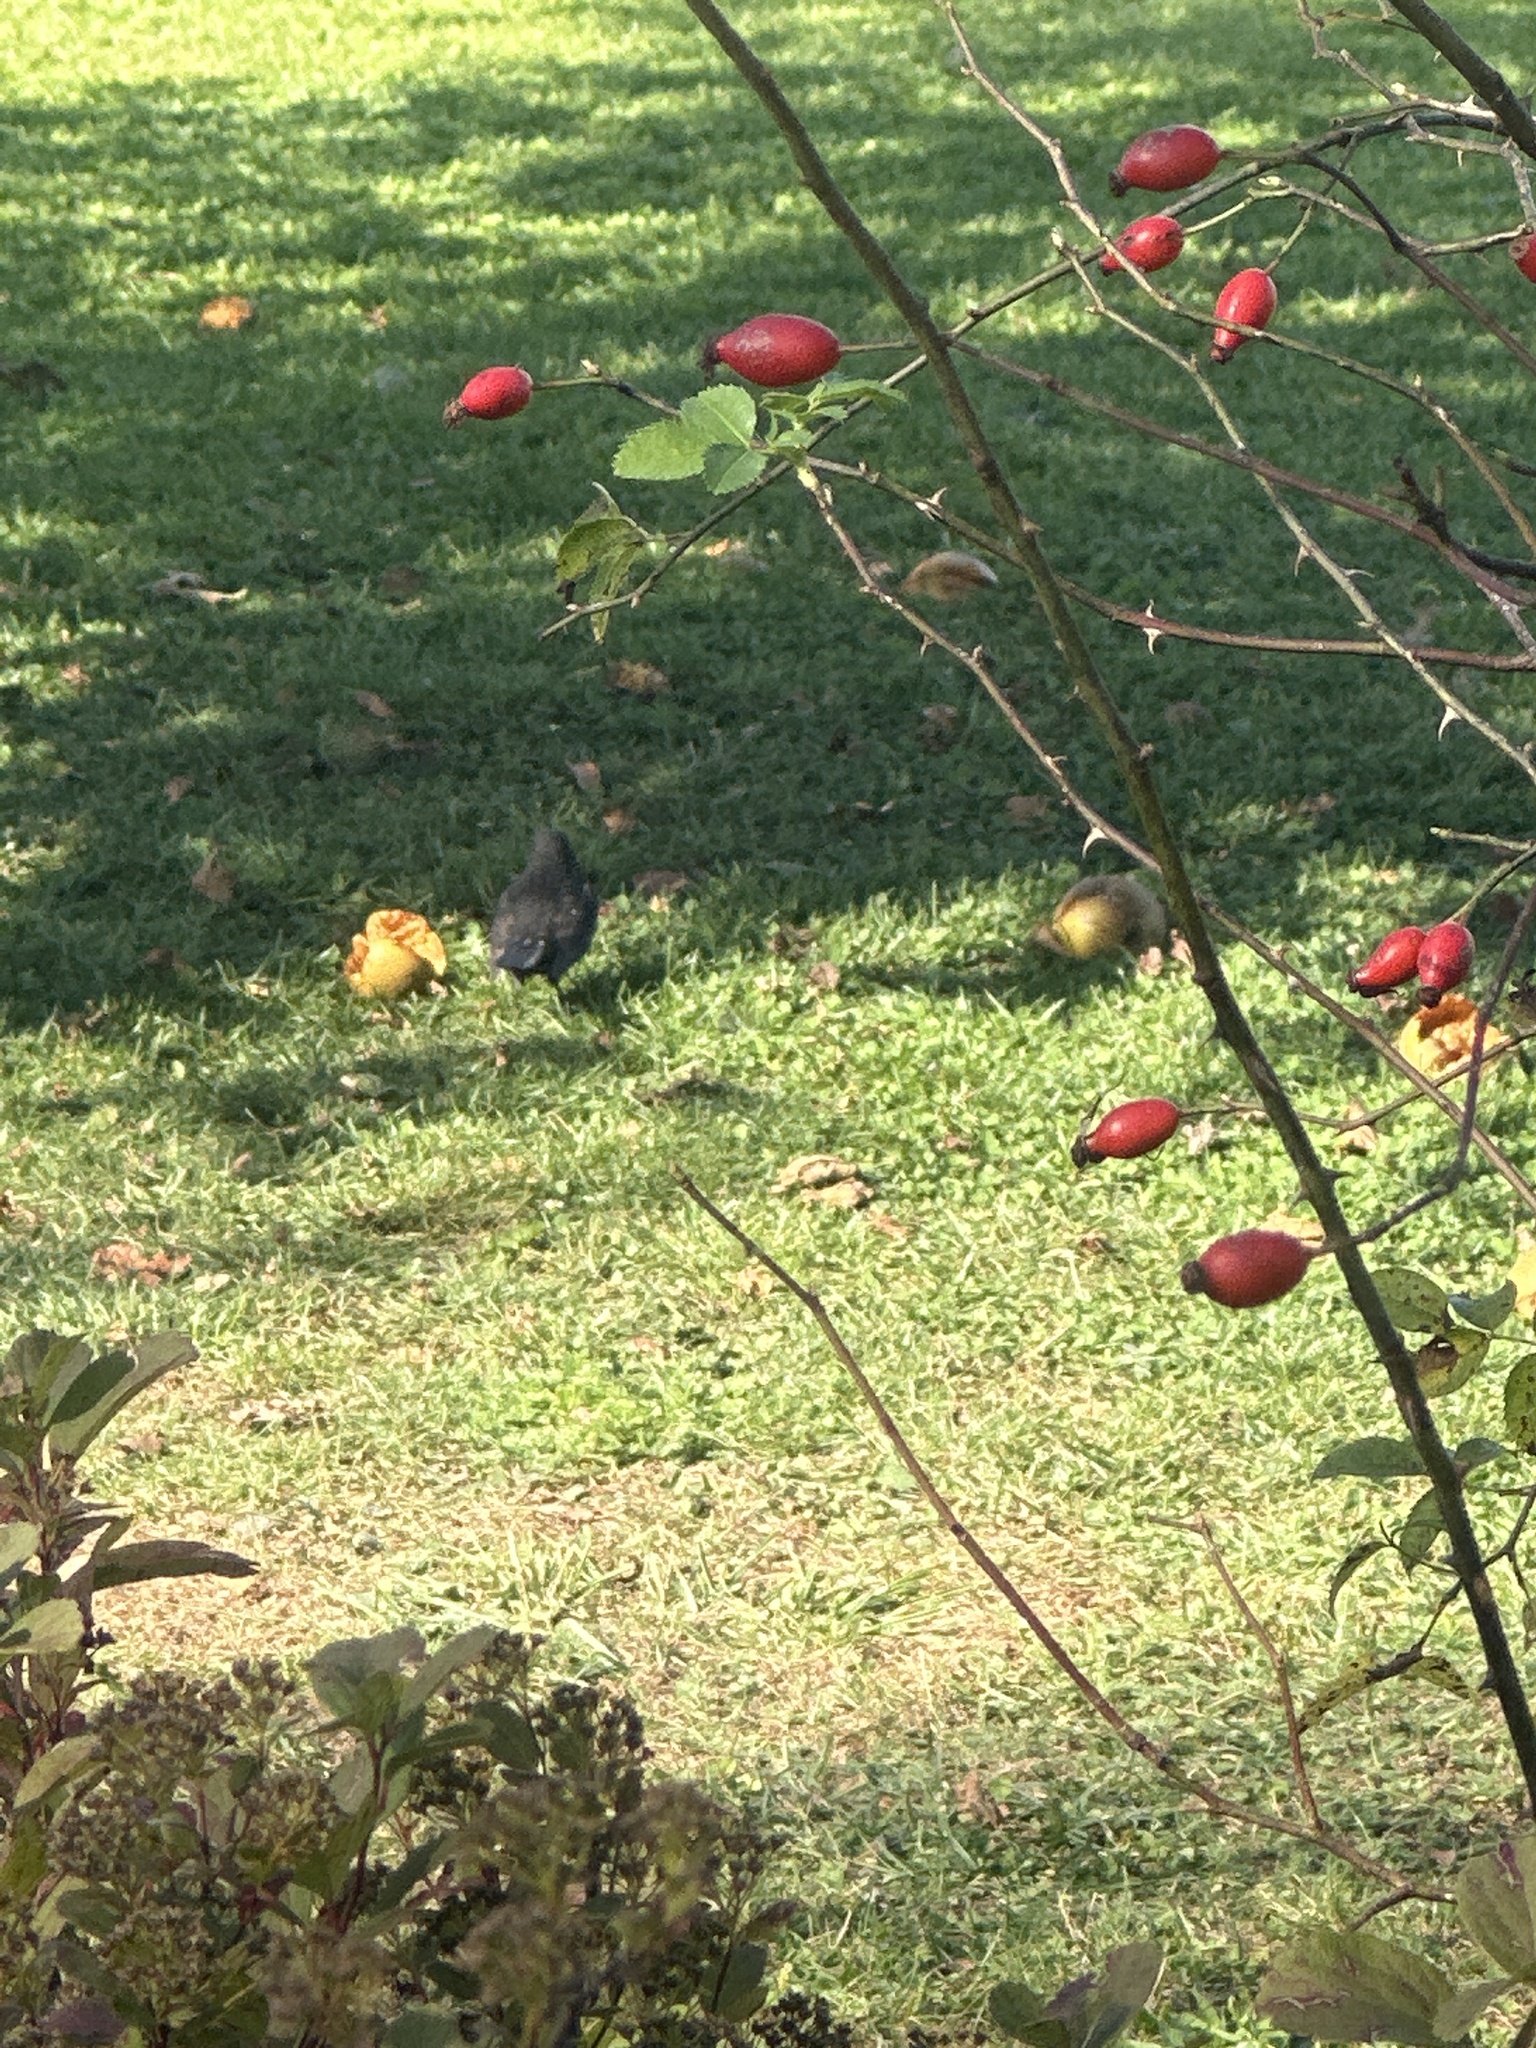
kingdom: Animalia
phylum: Chordata
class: Aves
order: Passeriformes
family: Turdidae
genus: Turdus
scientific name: Turdus merula
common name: Common blackbird
